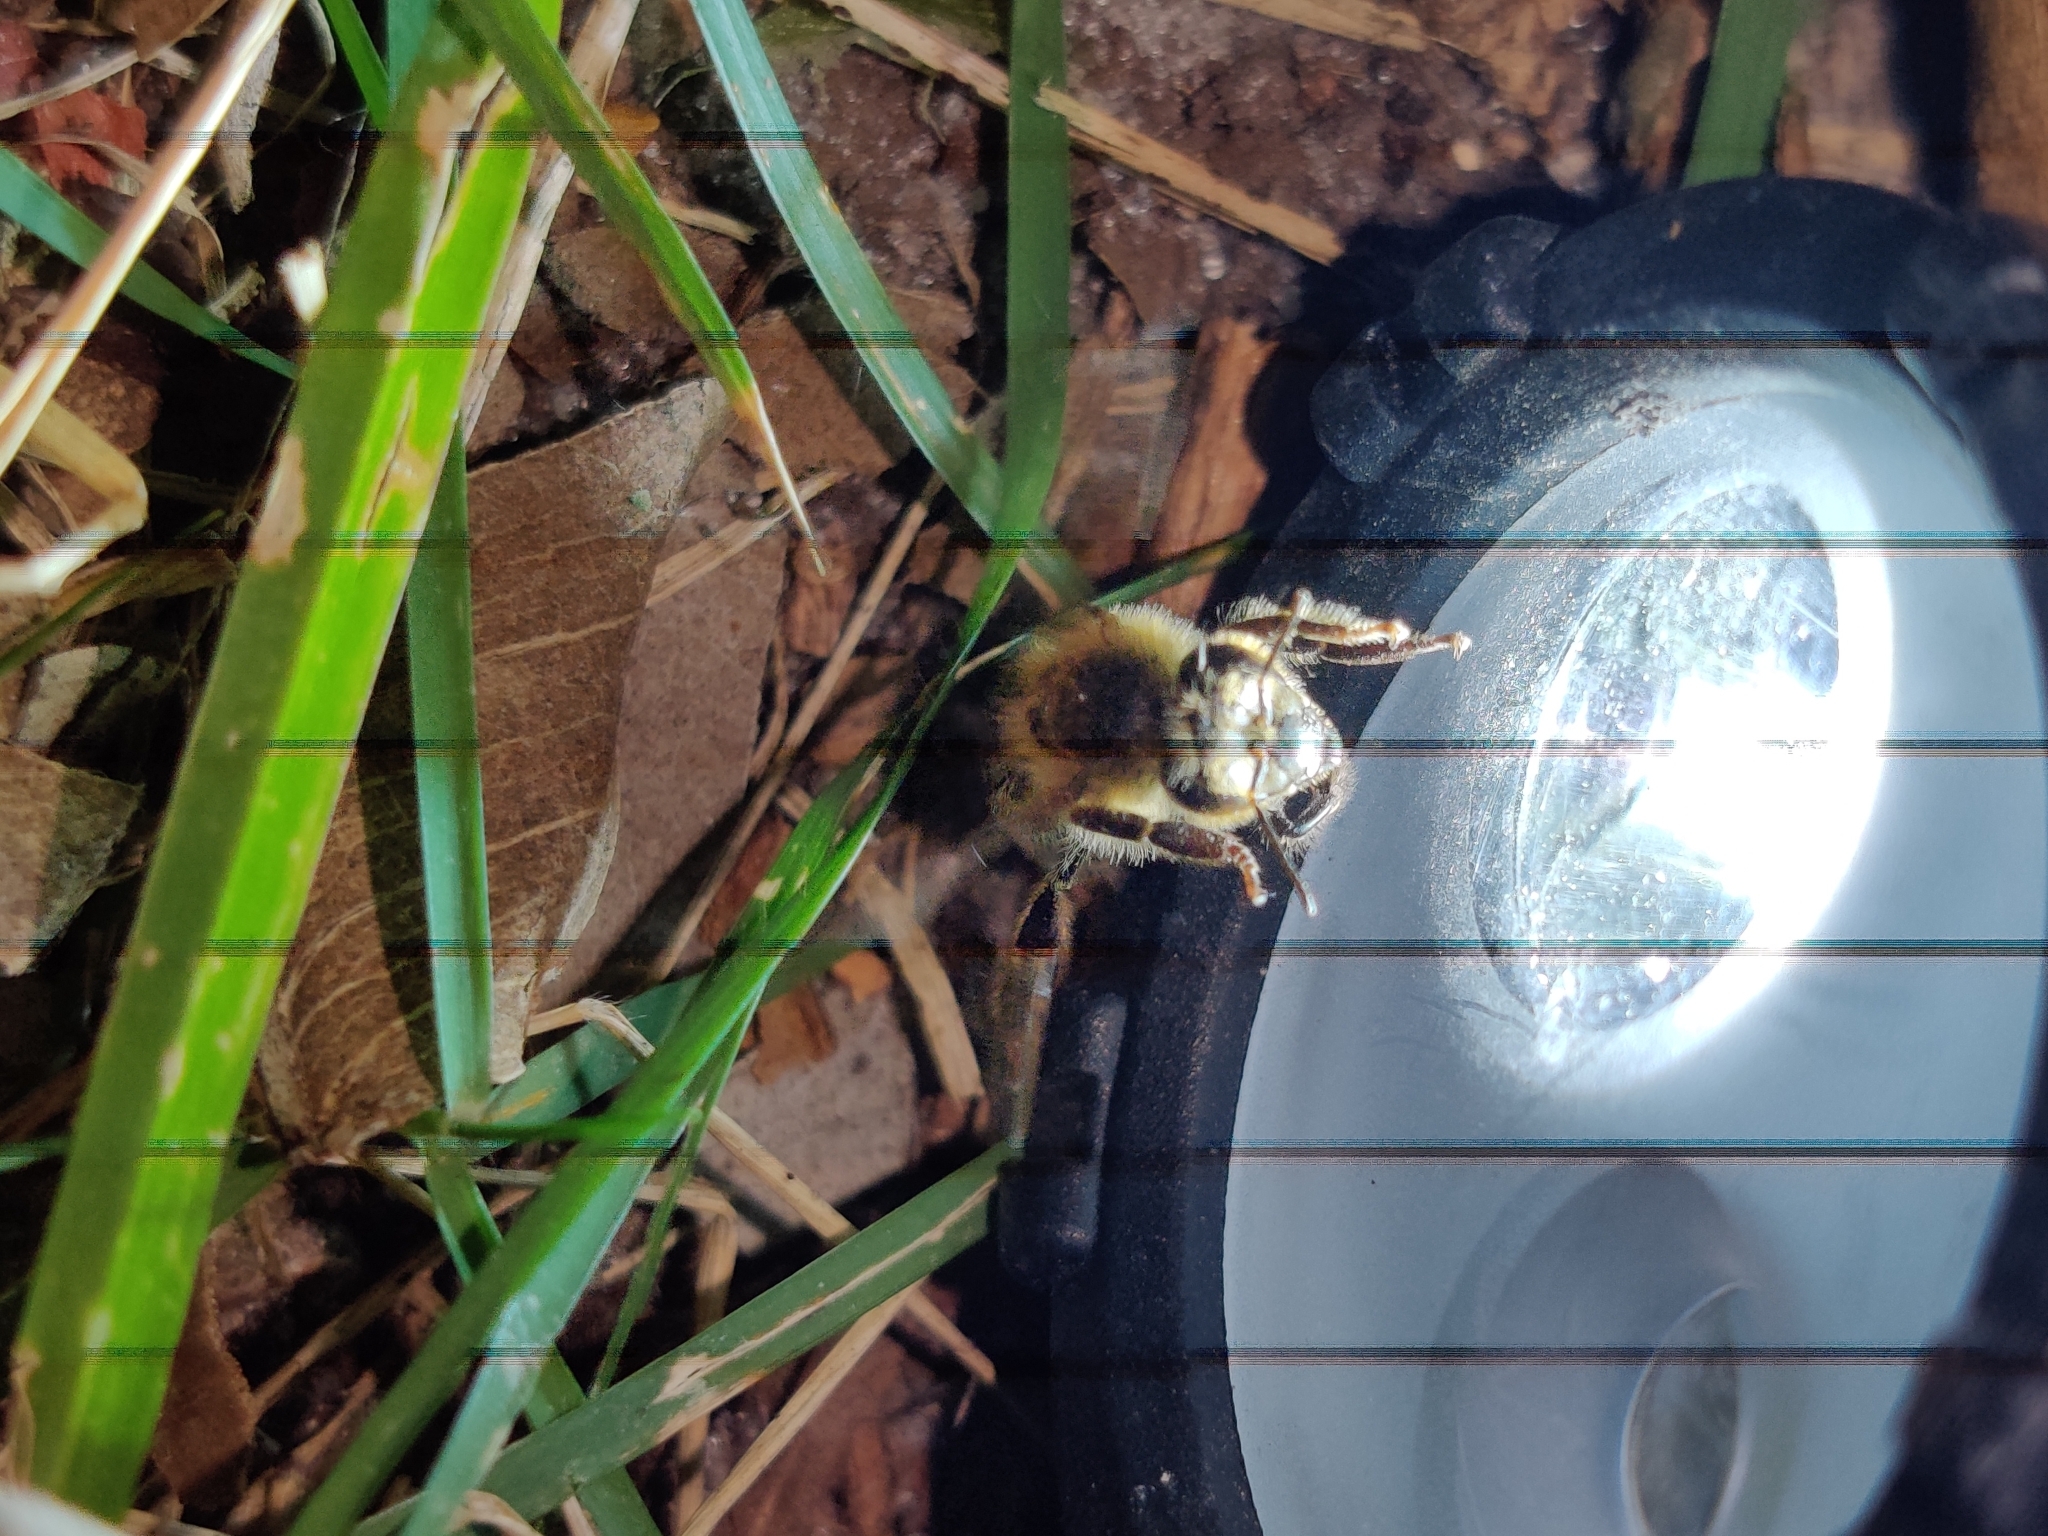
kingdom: Animalia
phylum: Arthropoda
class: Insecta
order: Hymenoptera
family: Apidae
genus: Apis
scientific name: Apis mellifera
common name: Honey bee
